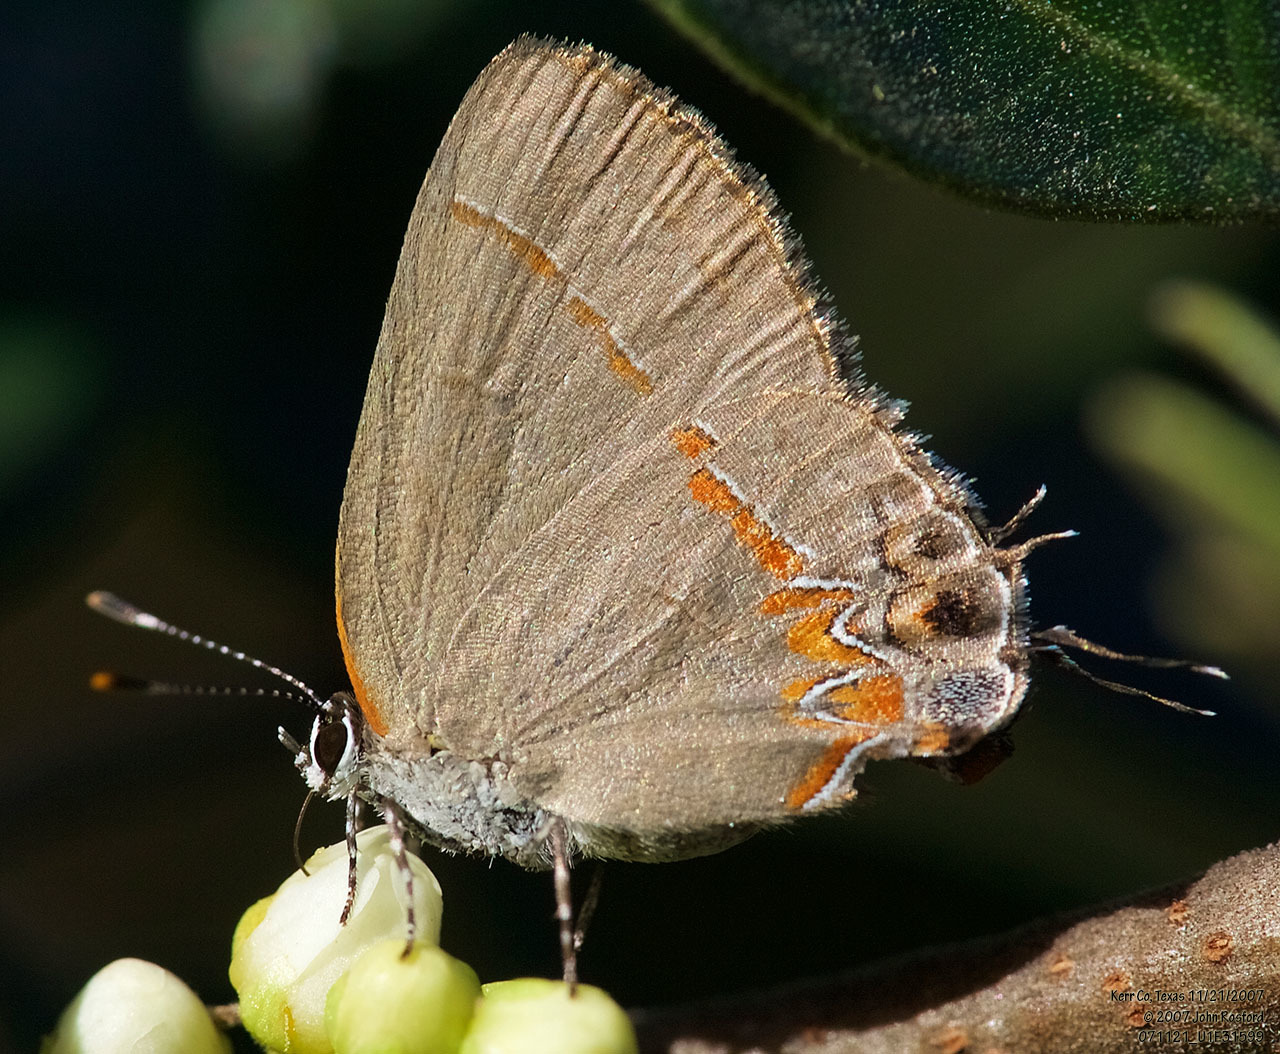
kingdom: Animalia
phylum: Arthropoda
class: Insecta
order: Lepidoptera
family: Lycaenidae
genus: Calycopis
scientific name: Calycopis isobeon
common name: Dusky-blue groundstreak
